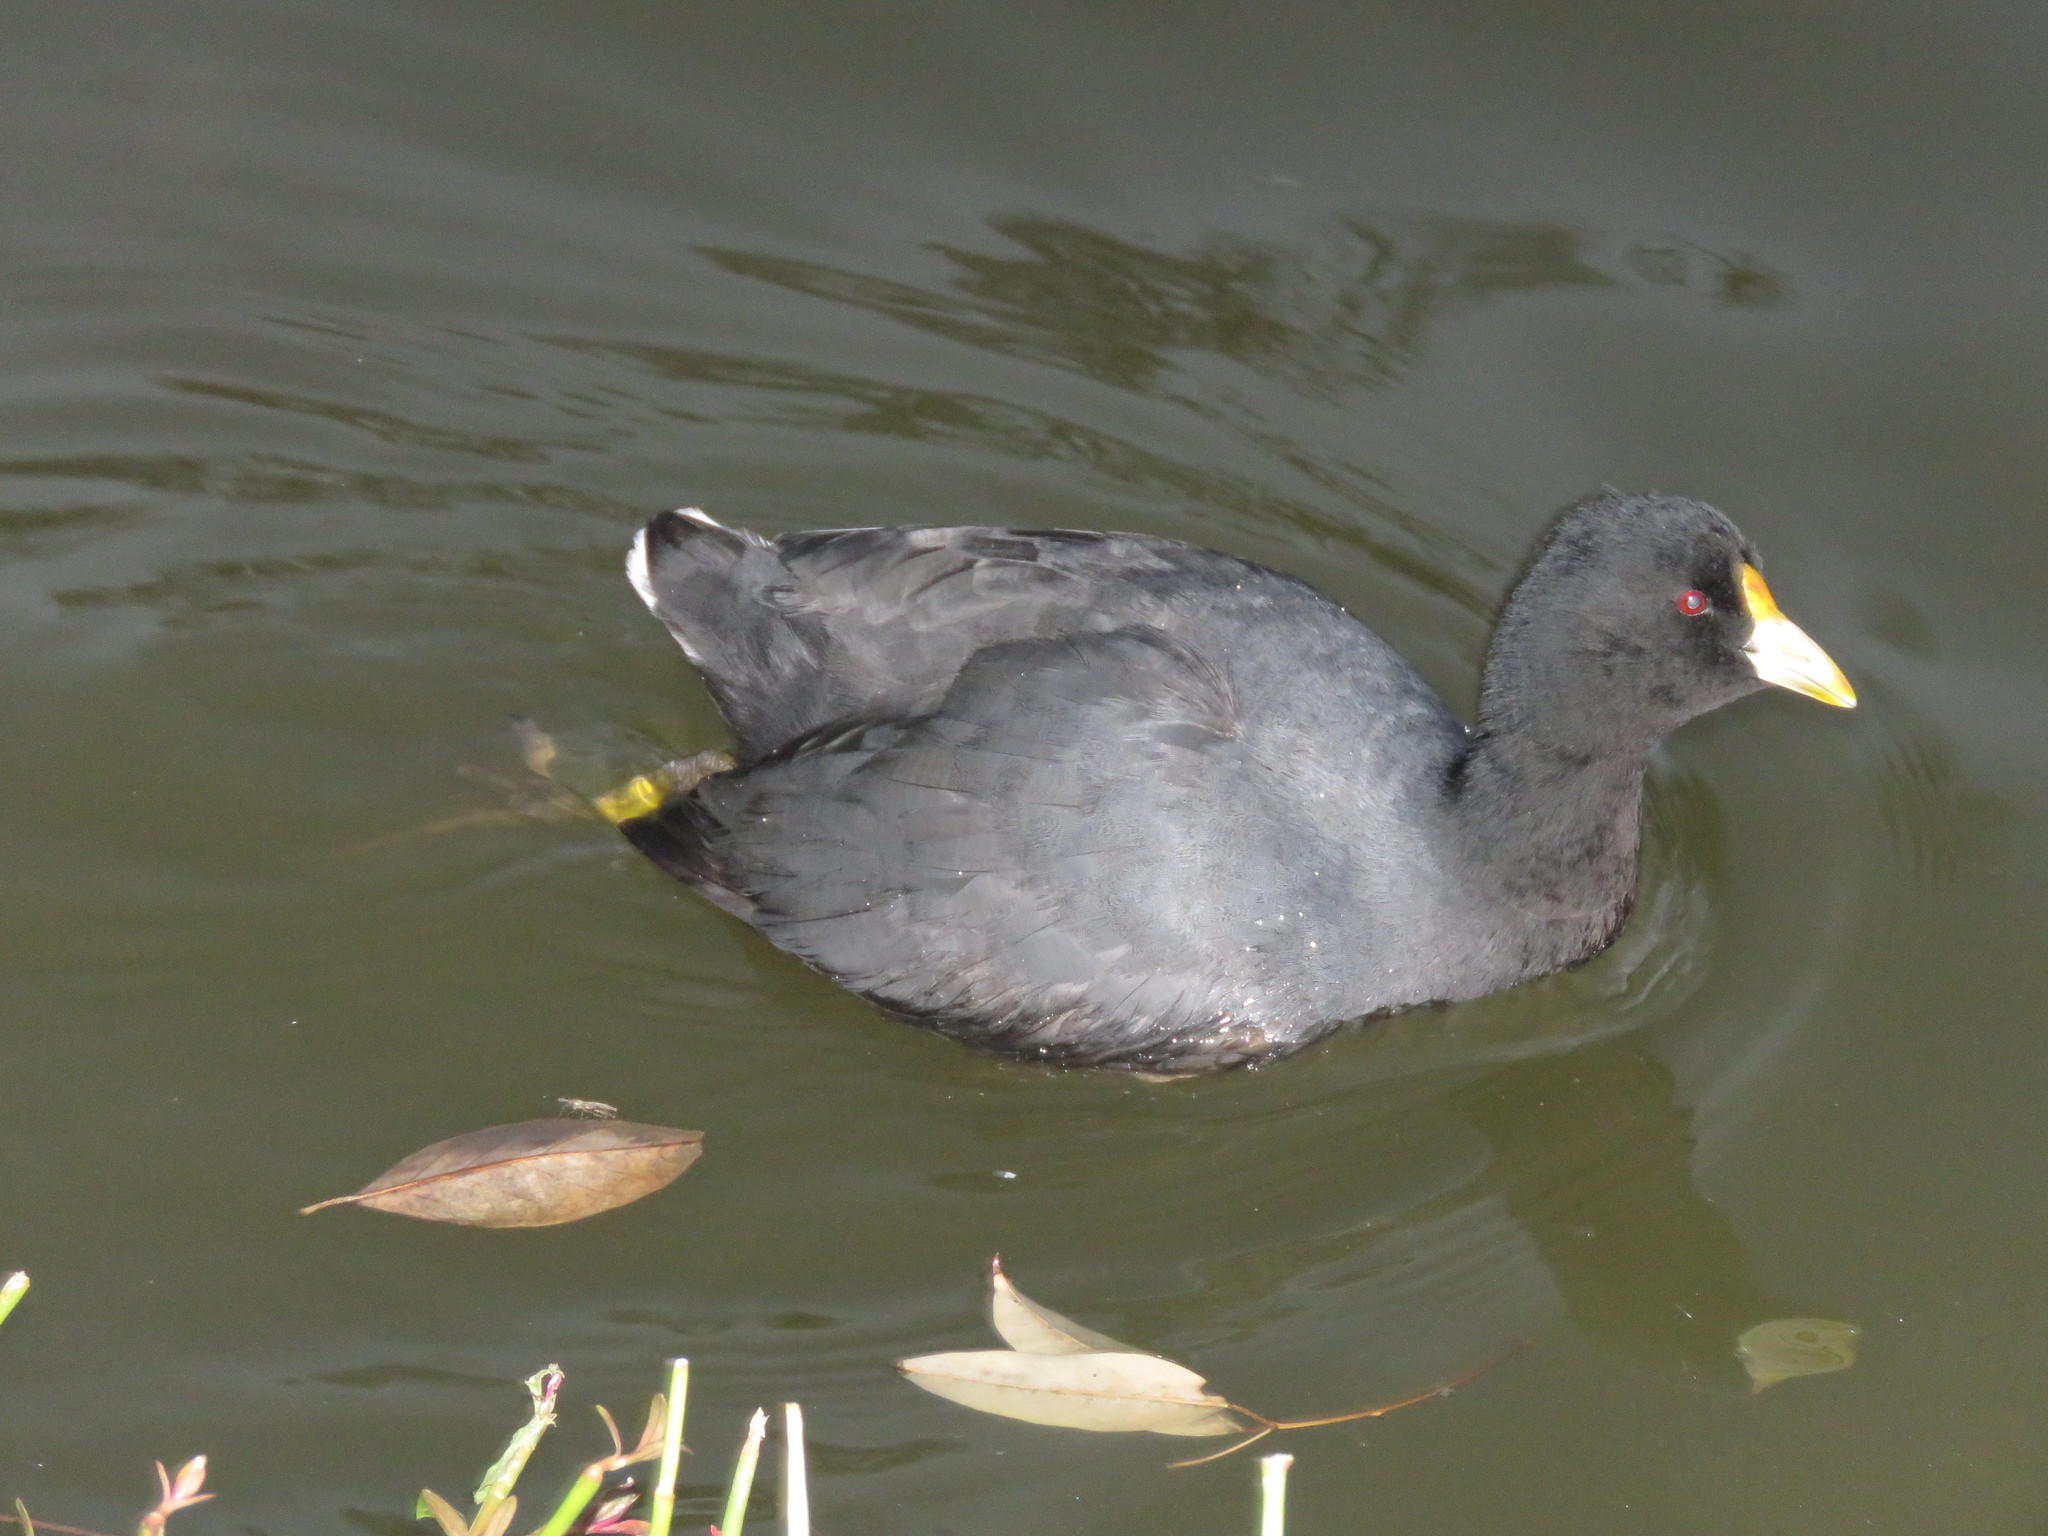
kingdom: Animalia
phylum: Chordata
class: Aves
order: Gruiformes
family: Rallidae
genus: Fulica
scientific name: Fulica leucoptera
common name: White-winged coot
